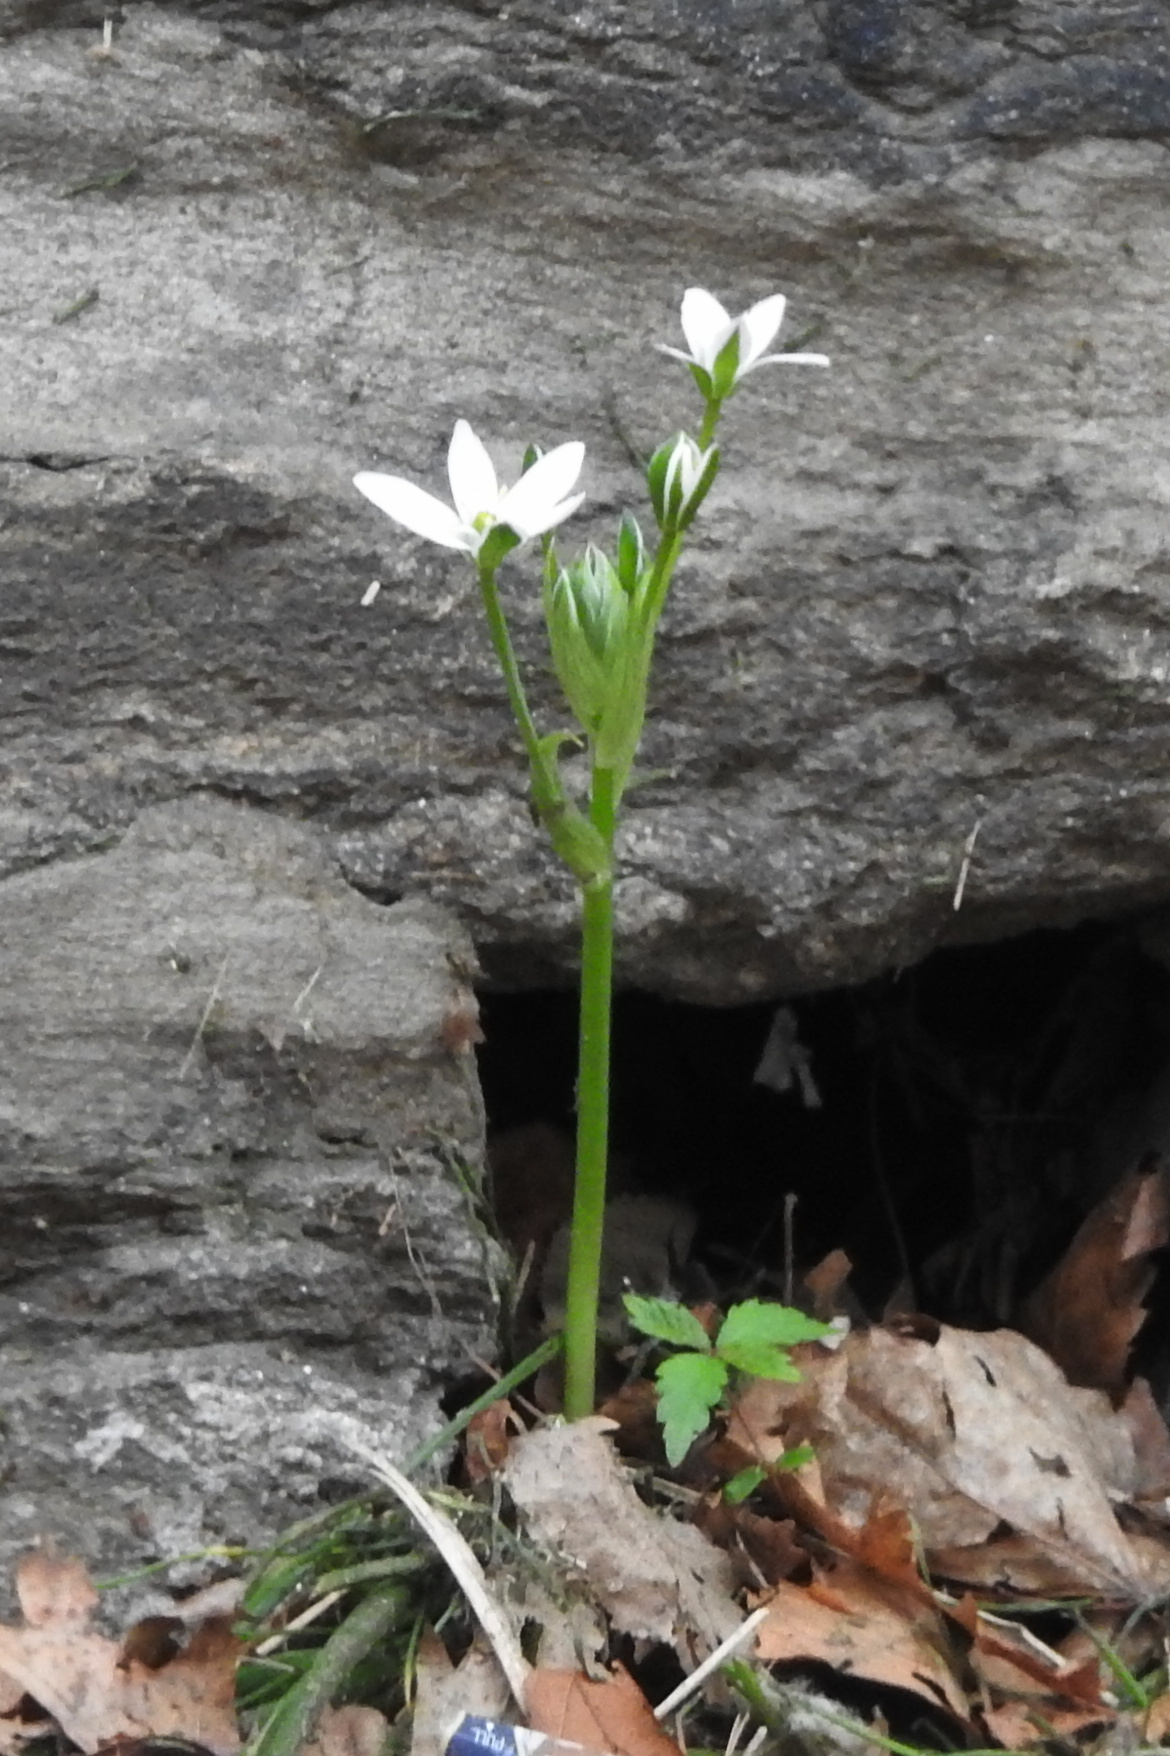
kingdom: Plantae
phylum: Tracheophyta
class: Liliopsida
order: Asparagales
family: Asparagaceae
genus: Ornithogalum
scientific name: Ornithogalum umbellatum
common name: Garden star-of-bethlehem
